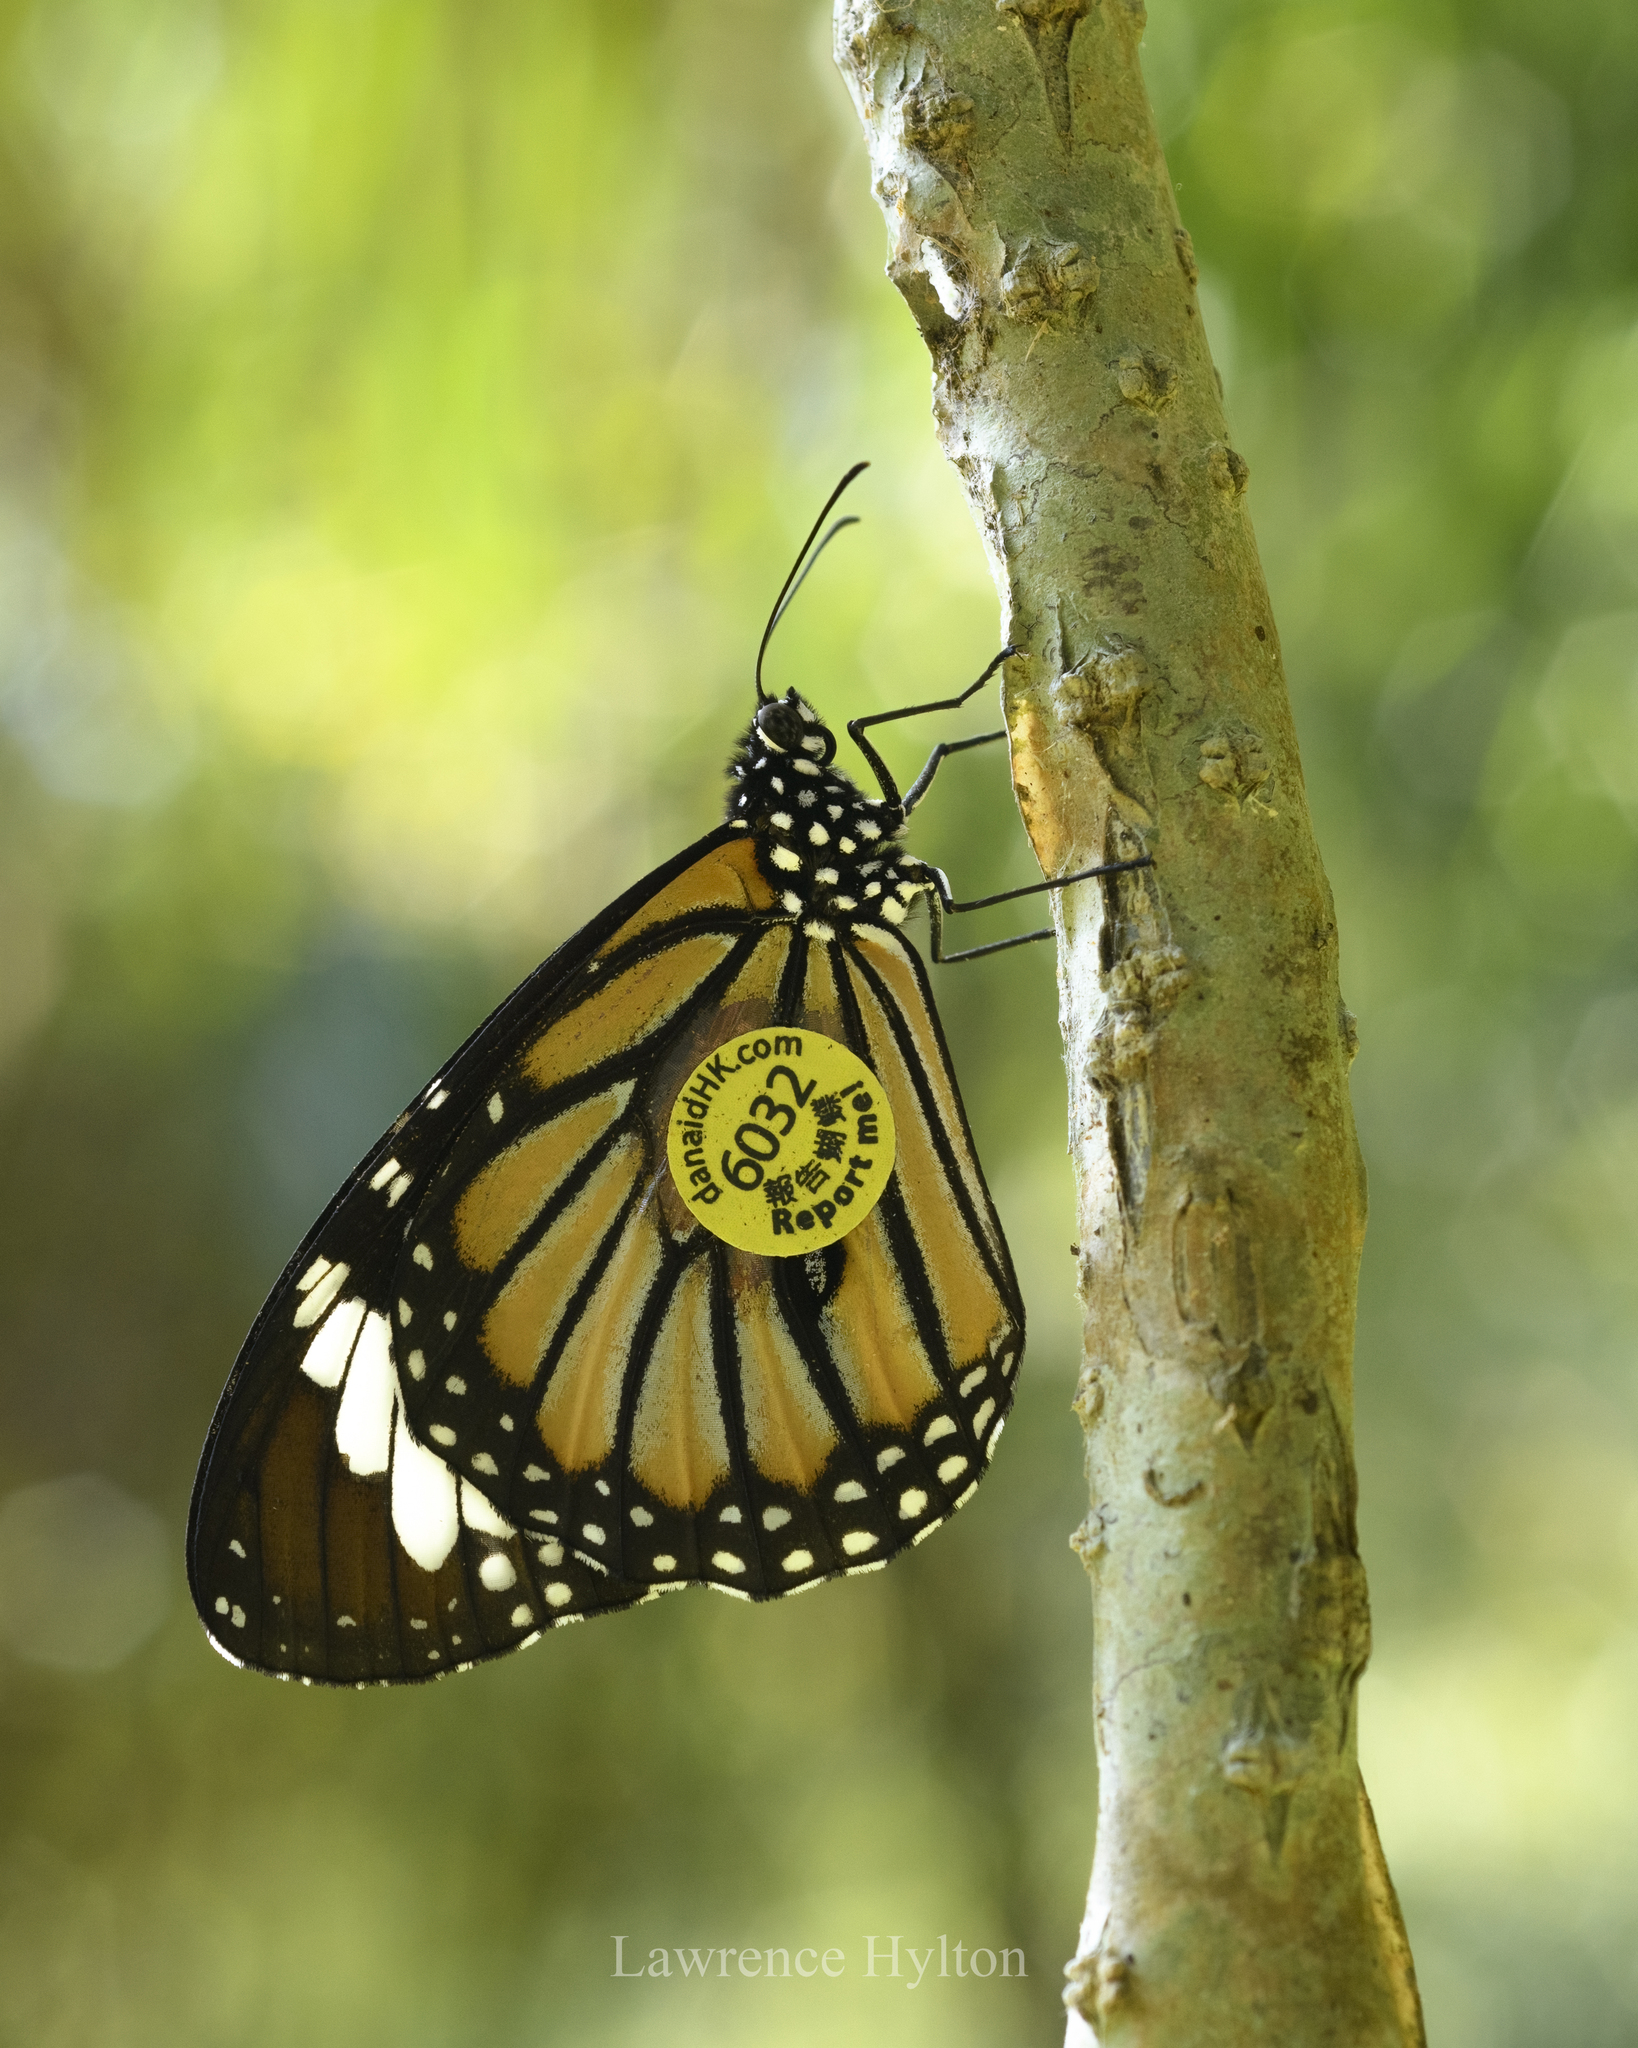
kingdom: Animalia
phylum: Arthropoda
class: Insecta
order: Lepidoptera
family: Nymphalidae
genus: Danaus
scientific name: Danaus genutia
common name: Common tiger butterfly
